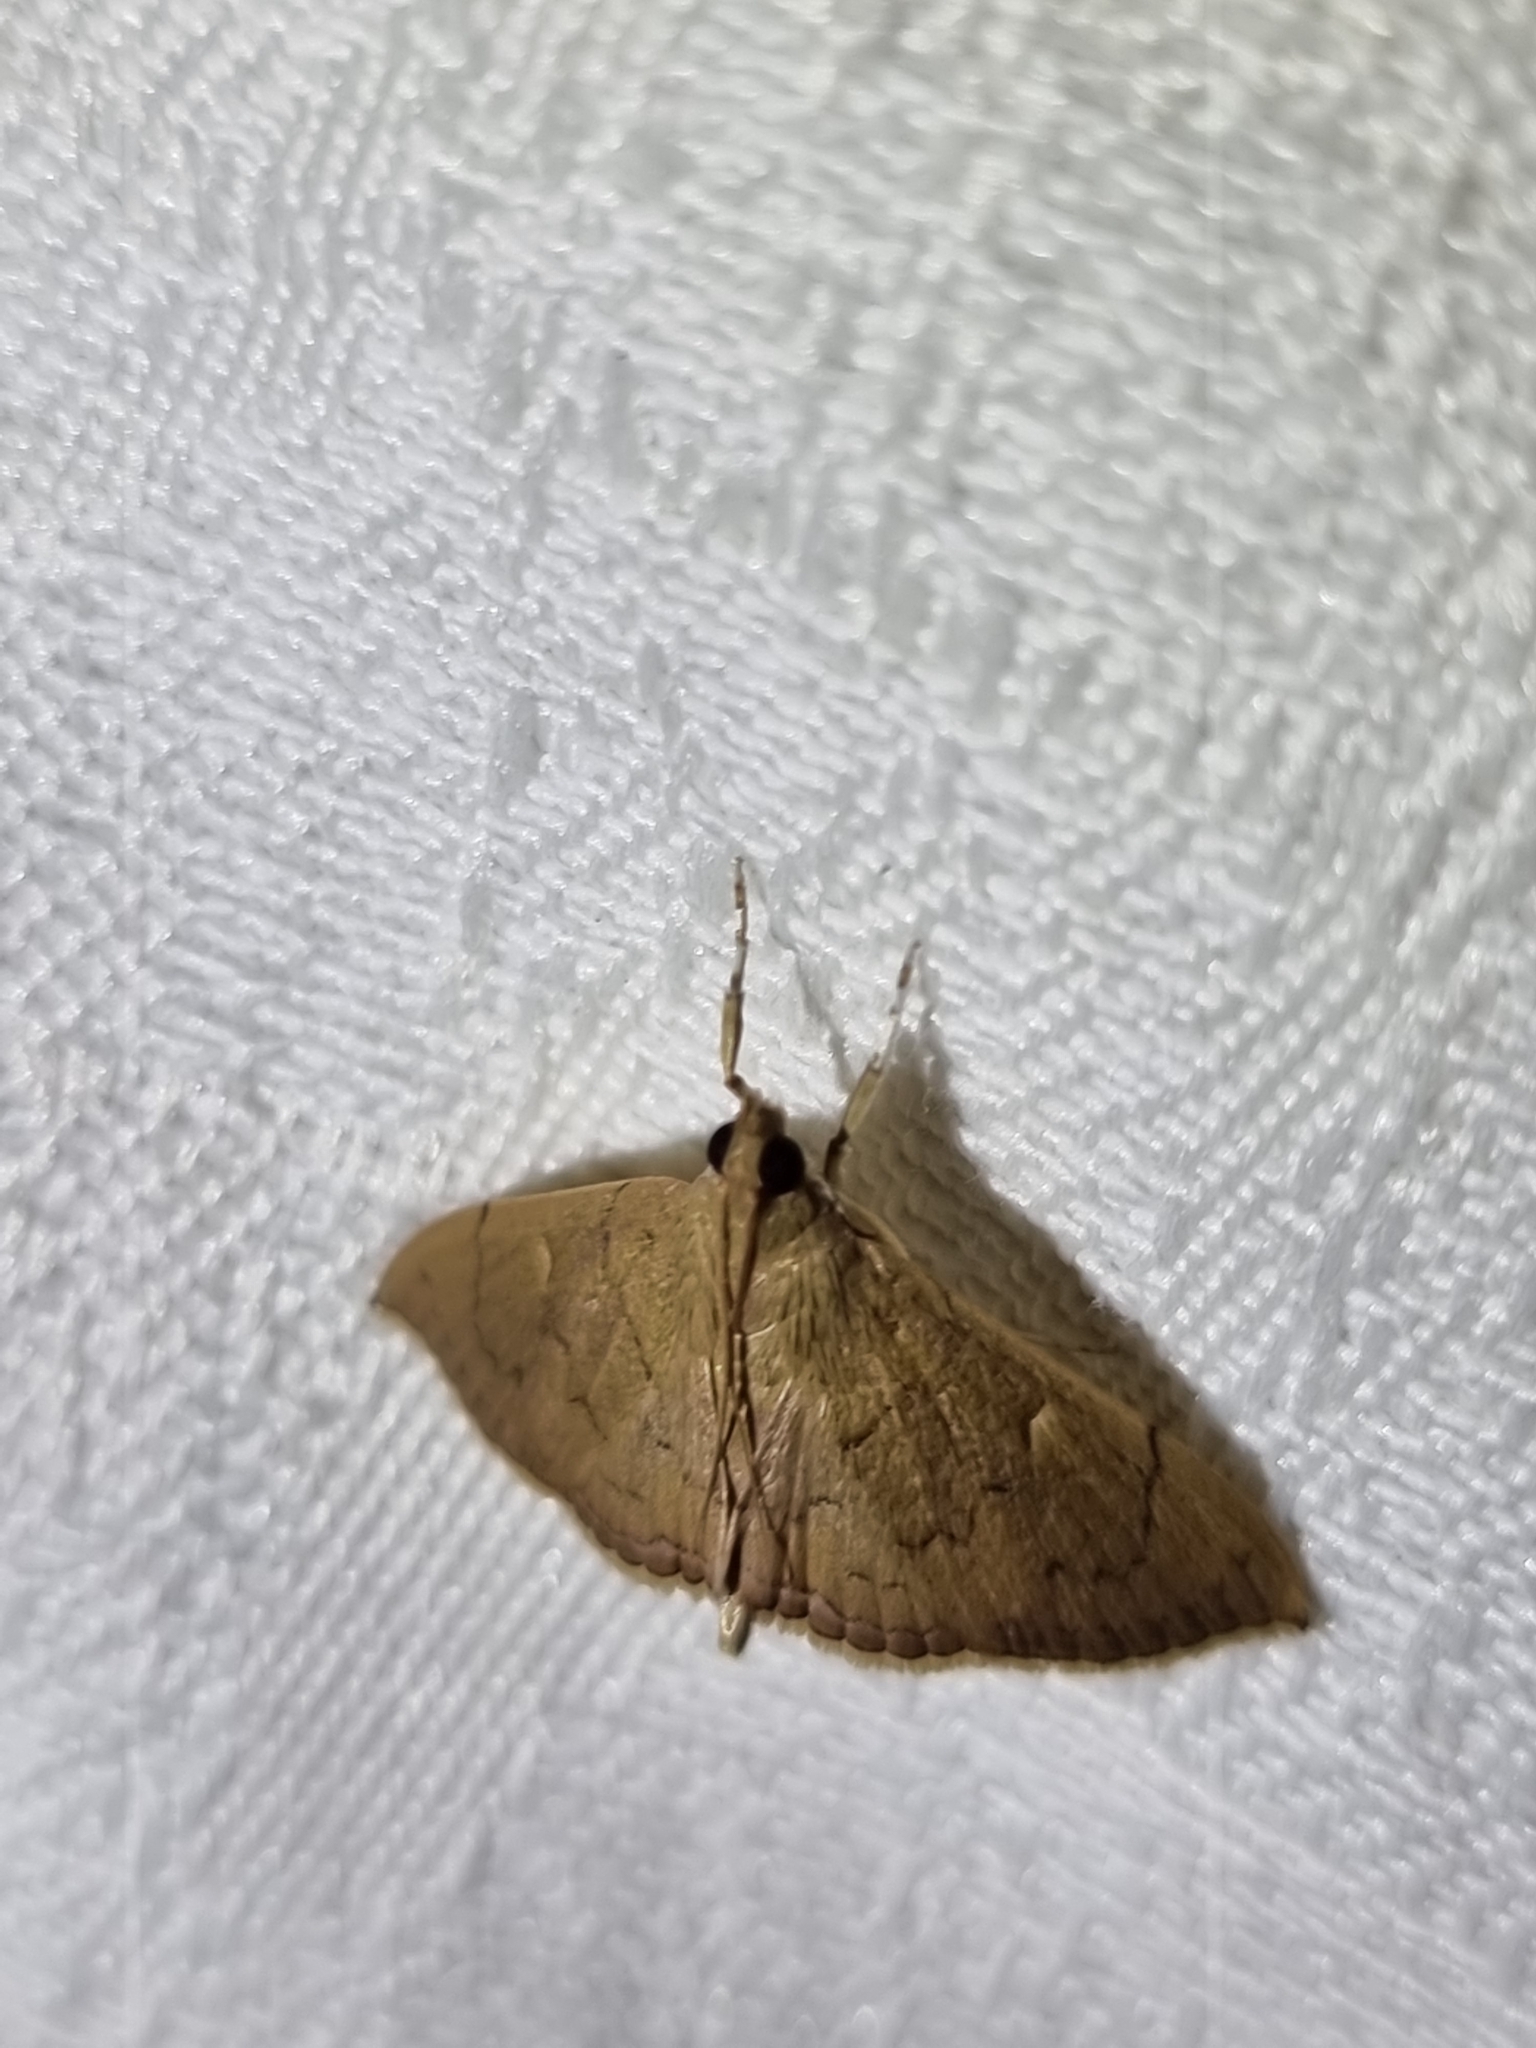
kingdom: Animalia
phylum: Arthropoda
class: Insecta
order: Lepidoptera
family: Crambidae
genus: Hyalobathra
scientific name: Hyalobathra crenulata
